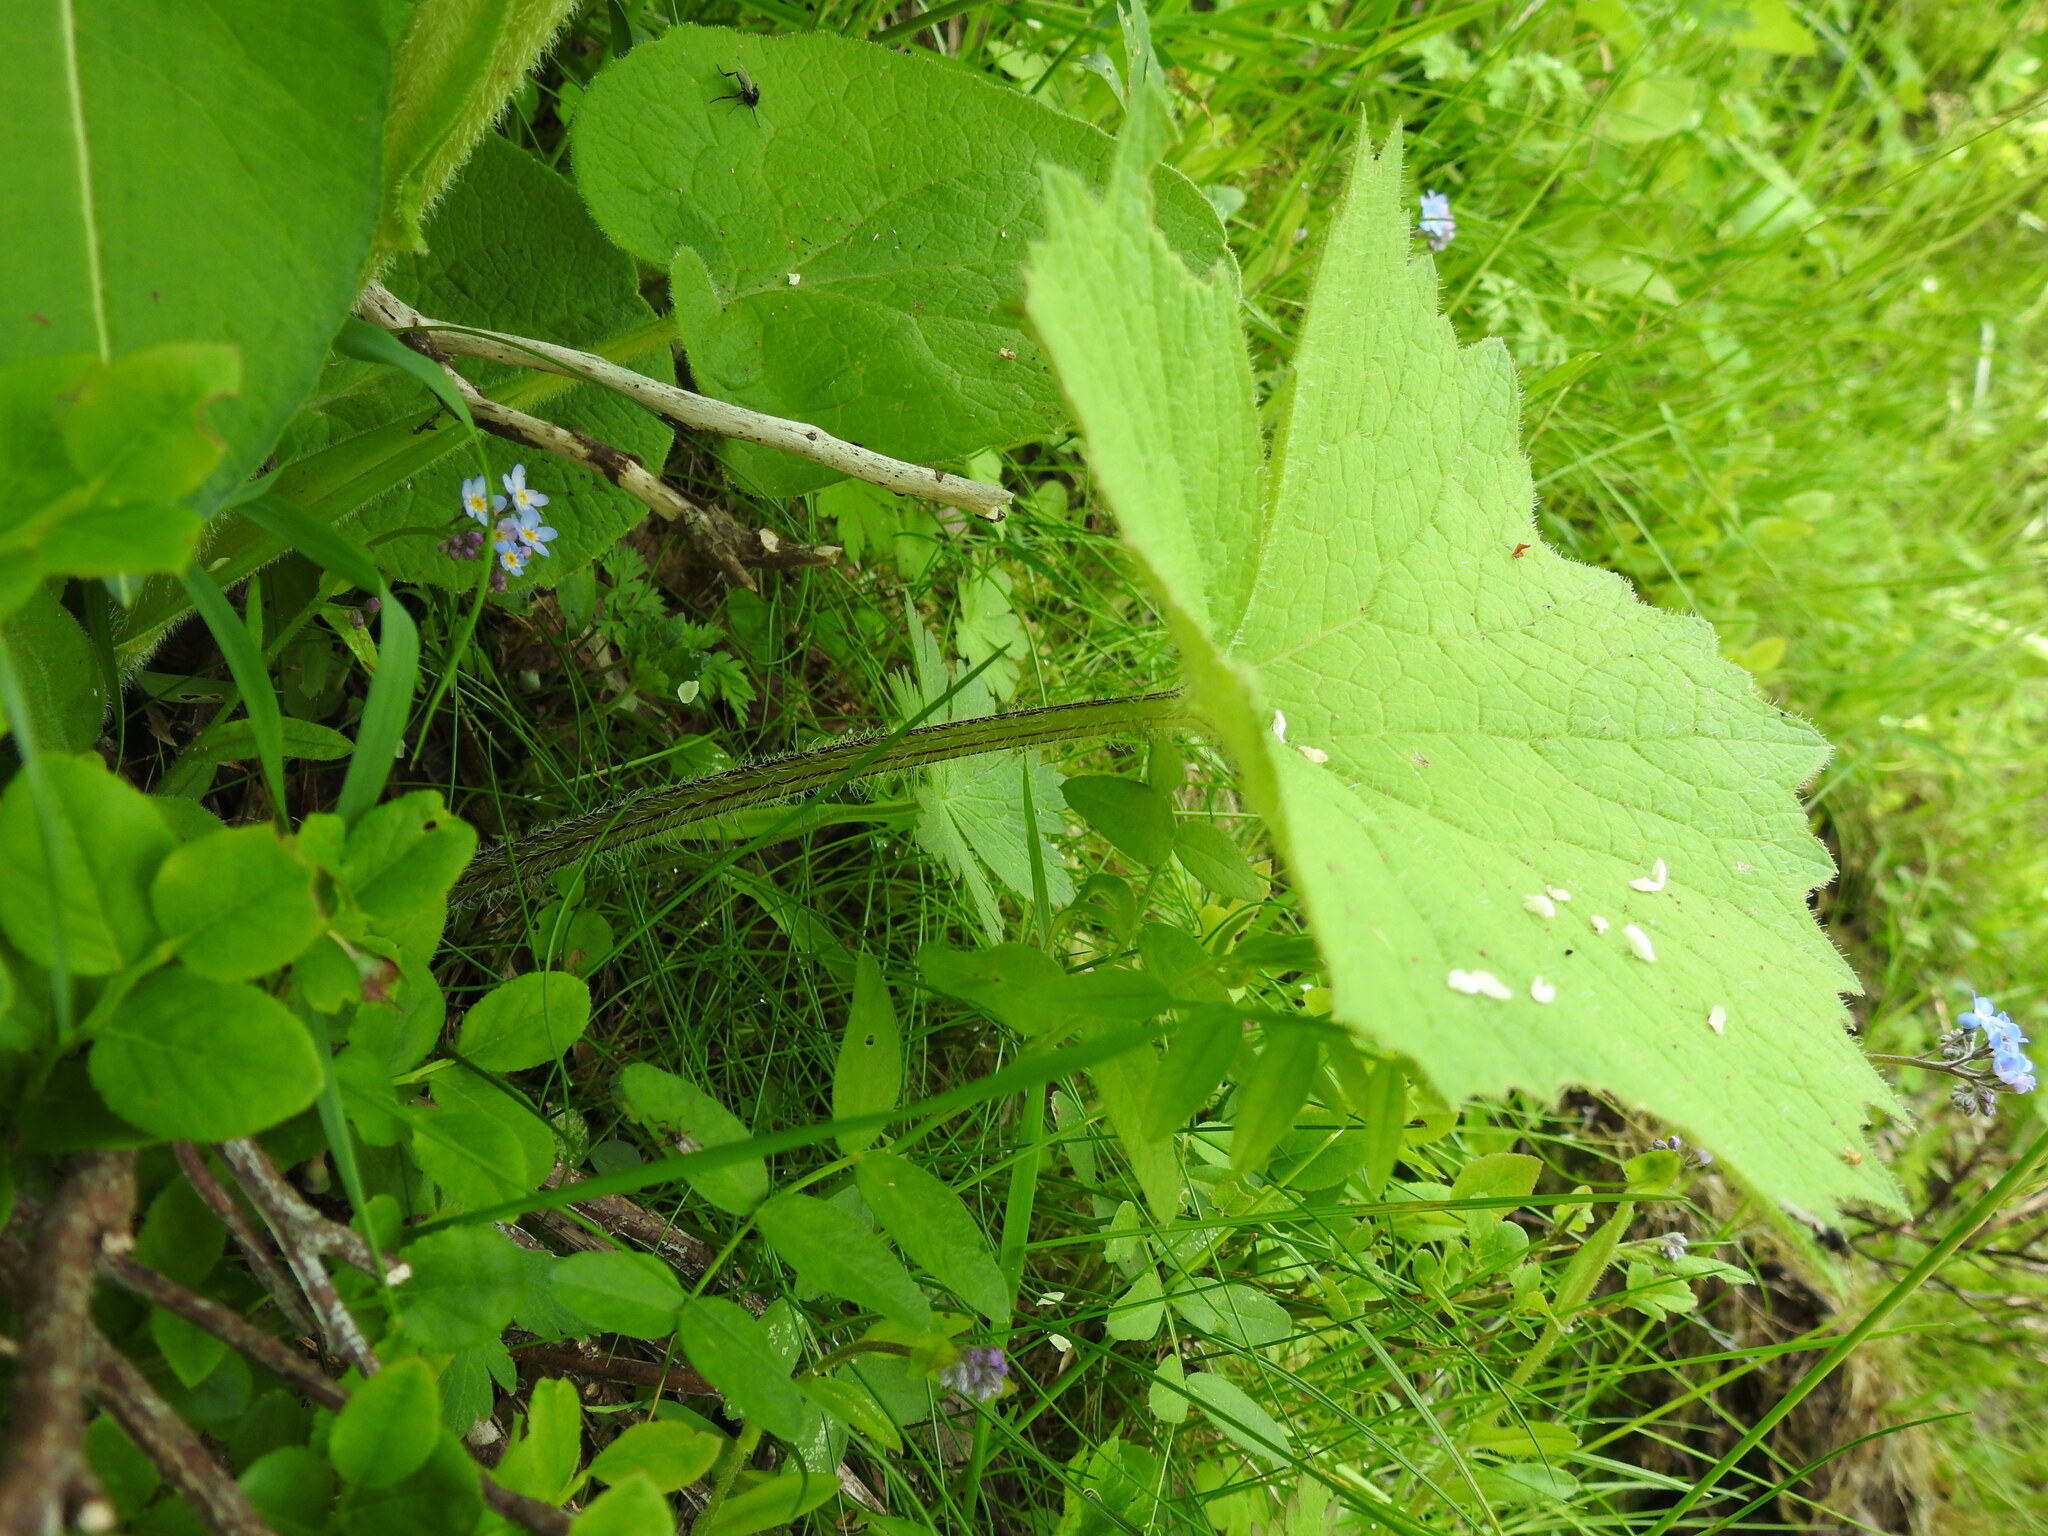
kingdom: Plantae
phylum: Tracheophyta
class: Magnoliopsida
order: Asterales
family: Asteraceae
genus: Adenostyles
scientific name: Adenostyles alliariae
